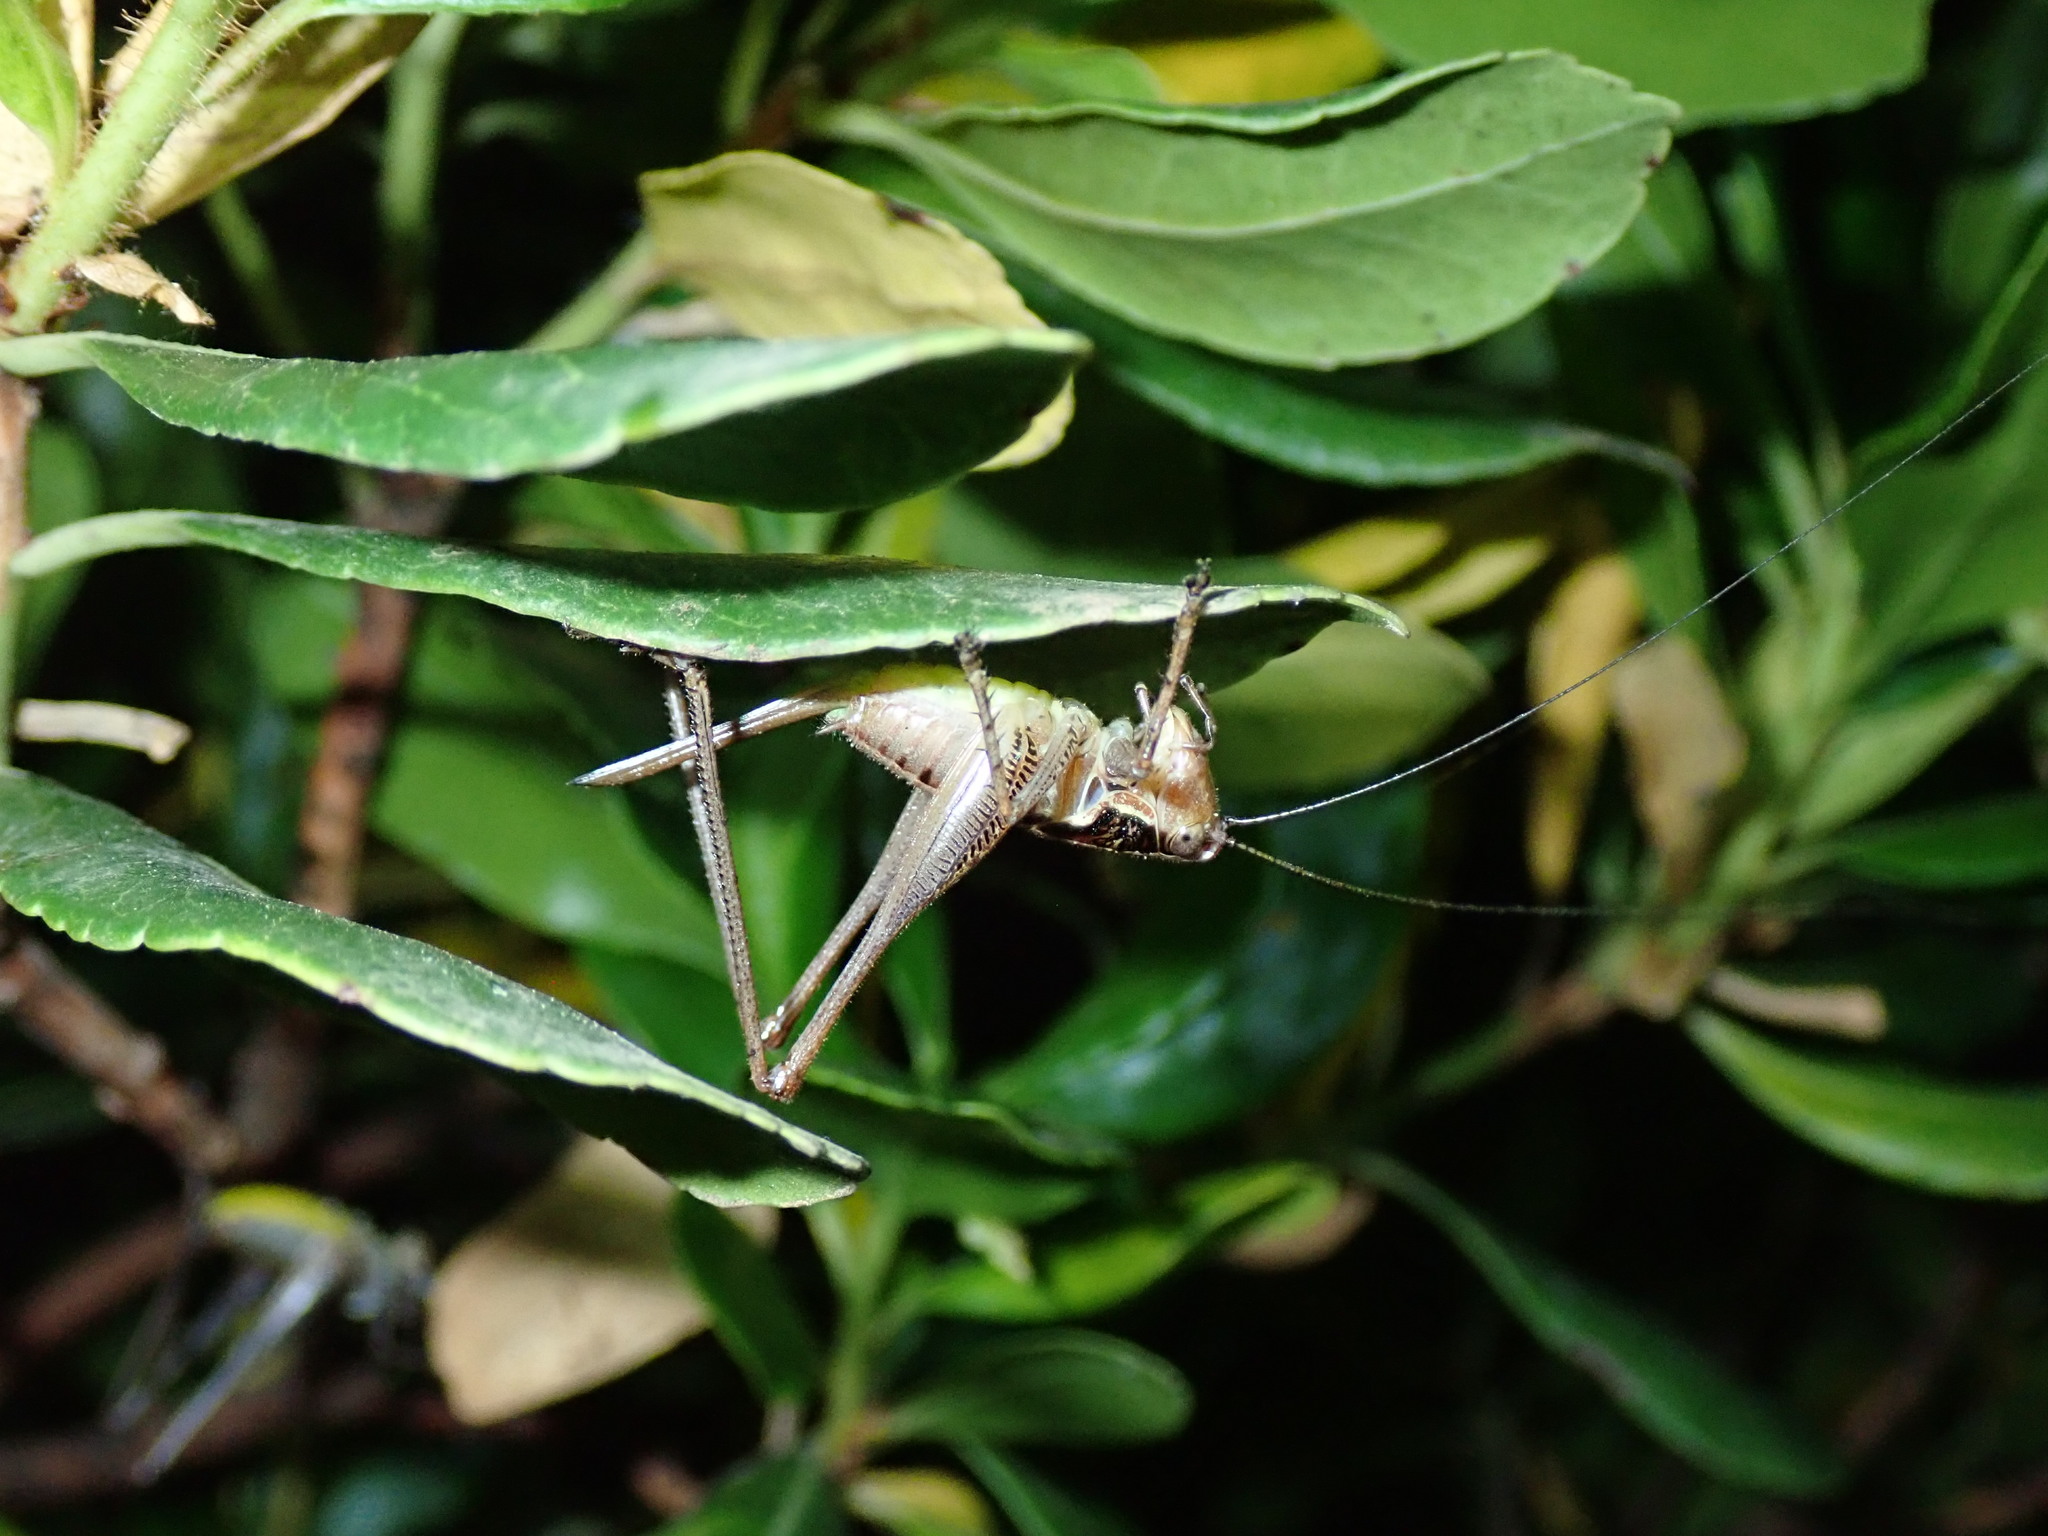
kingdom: Animalia
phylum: Arthropoda
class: Insecta
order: Orthoptera
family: Tettigoniidae
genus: Pachytrachis
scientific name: Pachytrachis frater
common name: Monk bush-cricket
